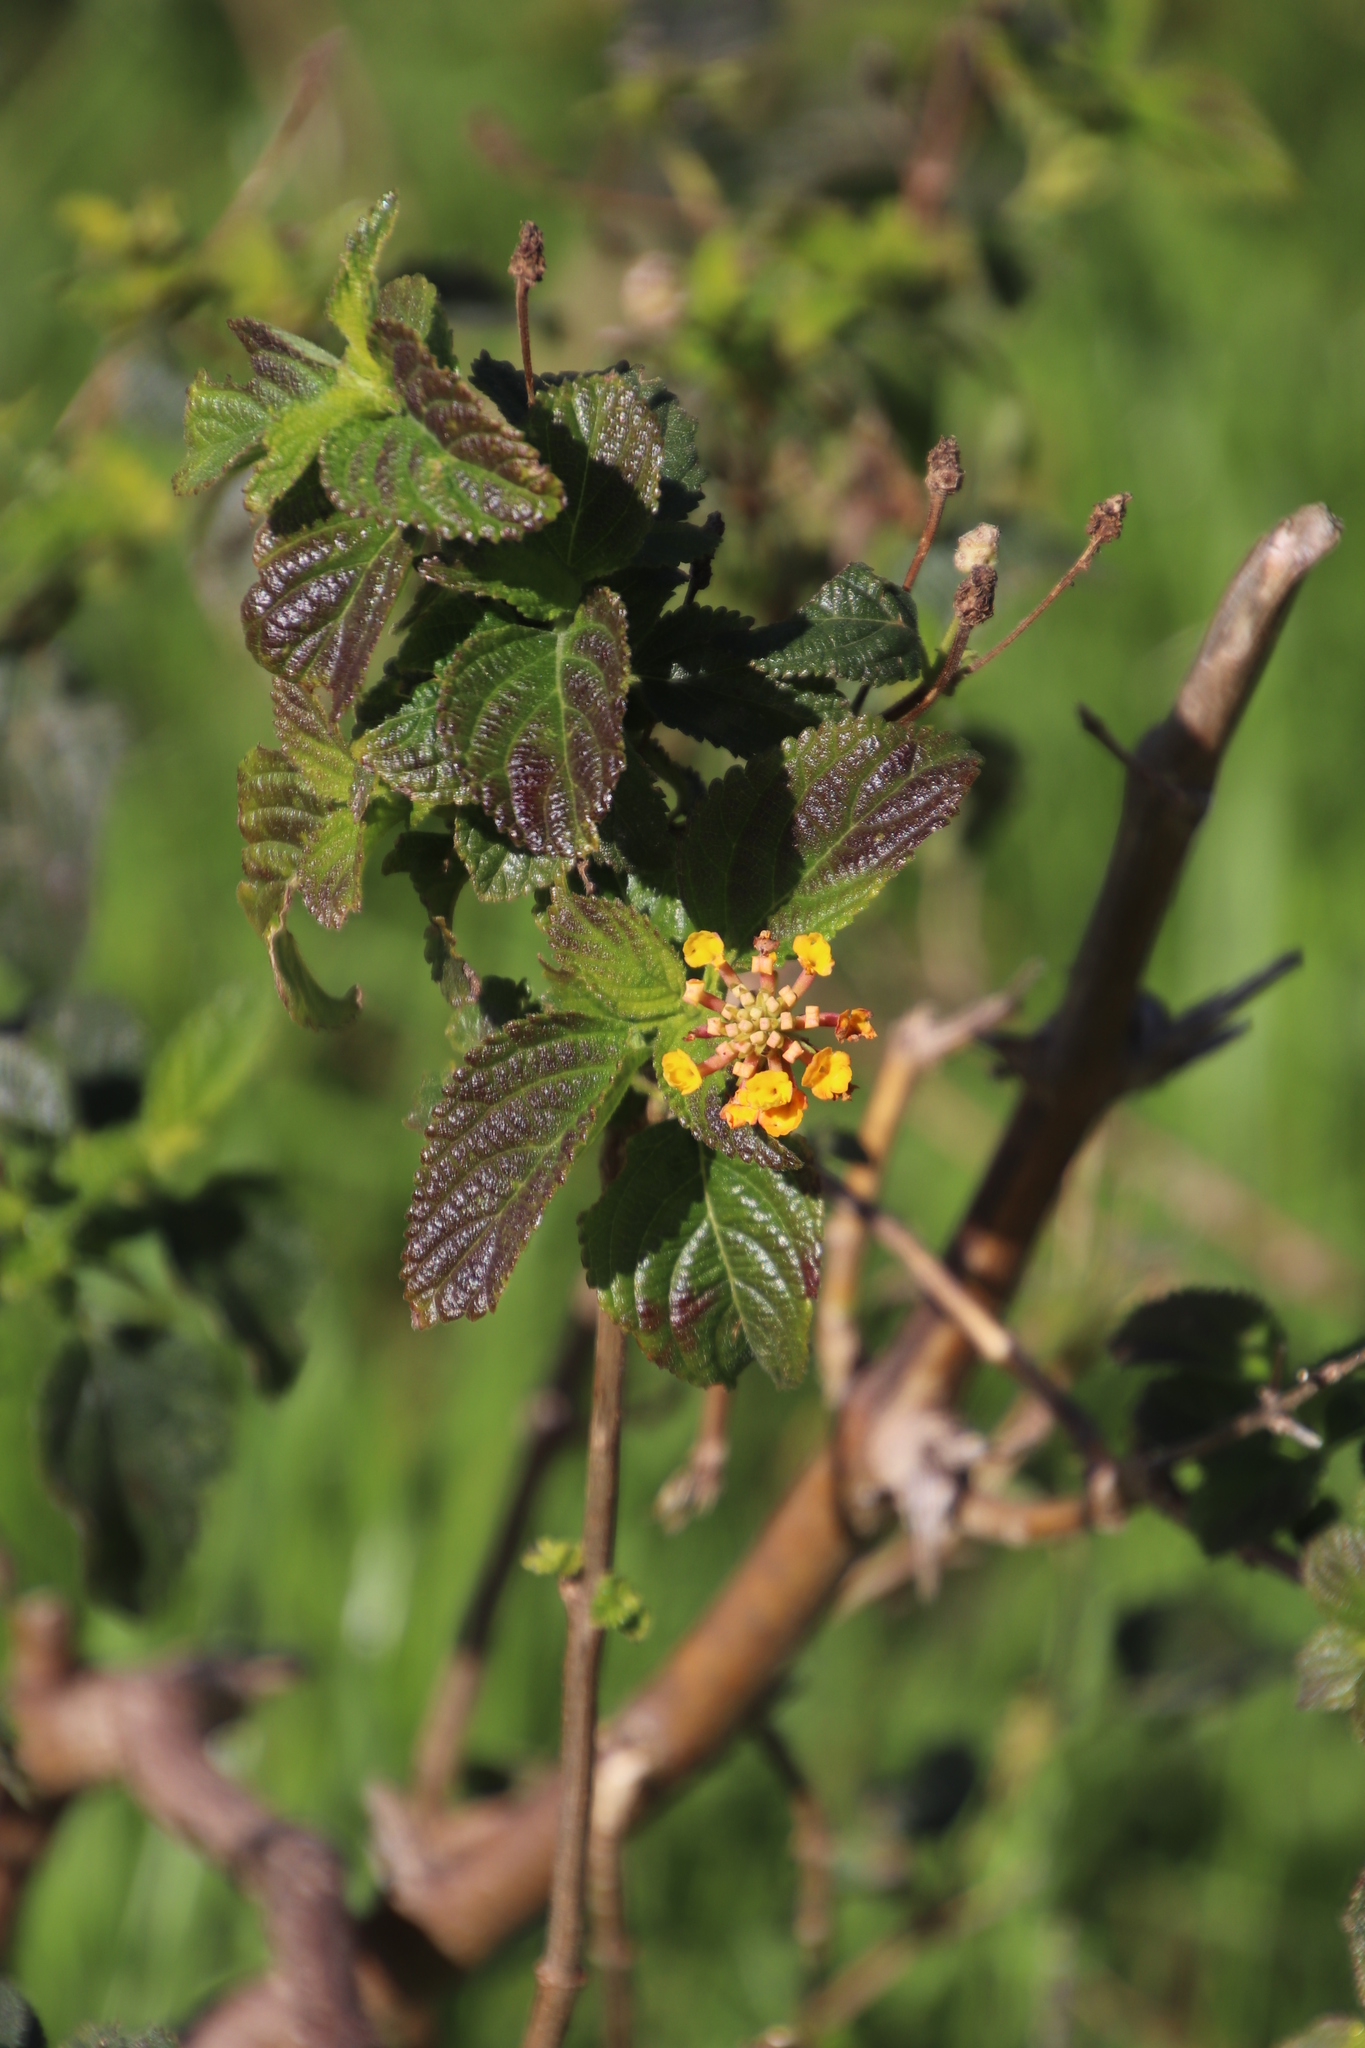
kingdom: Plantae
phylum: Tracheophyta
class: Magnoliopsida
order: Lamiales
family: Verbenaceae
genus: Lantana
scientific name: Lantana camara
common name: Lantana
